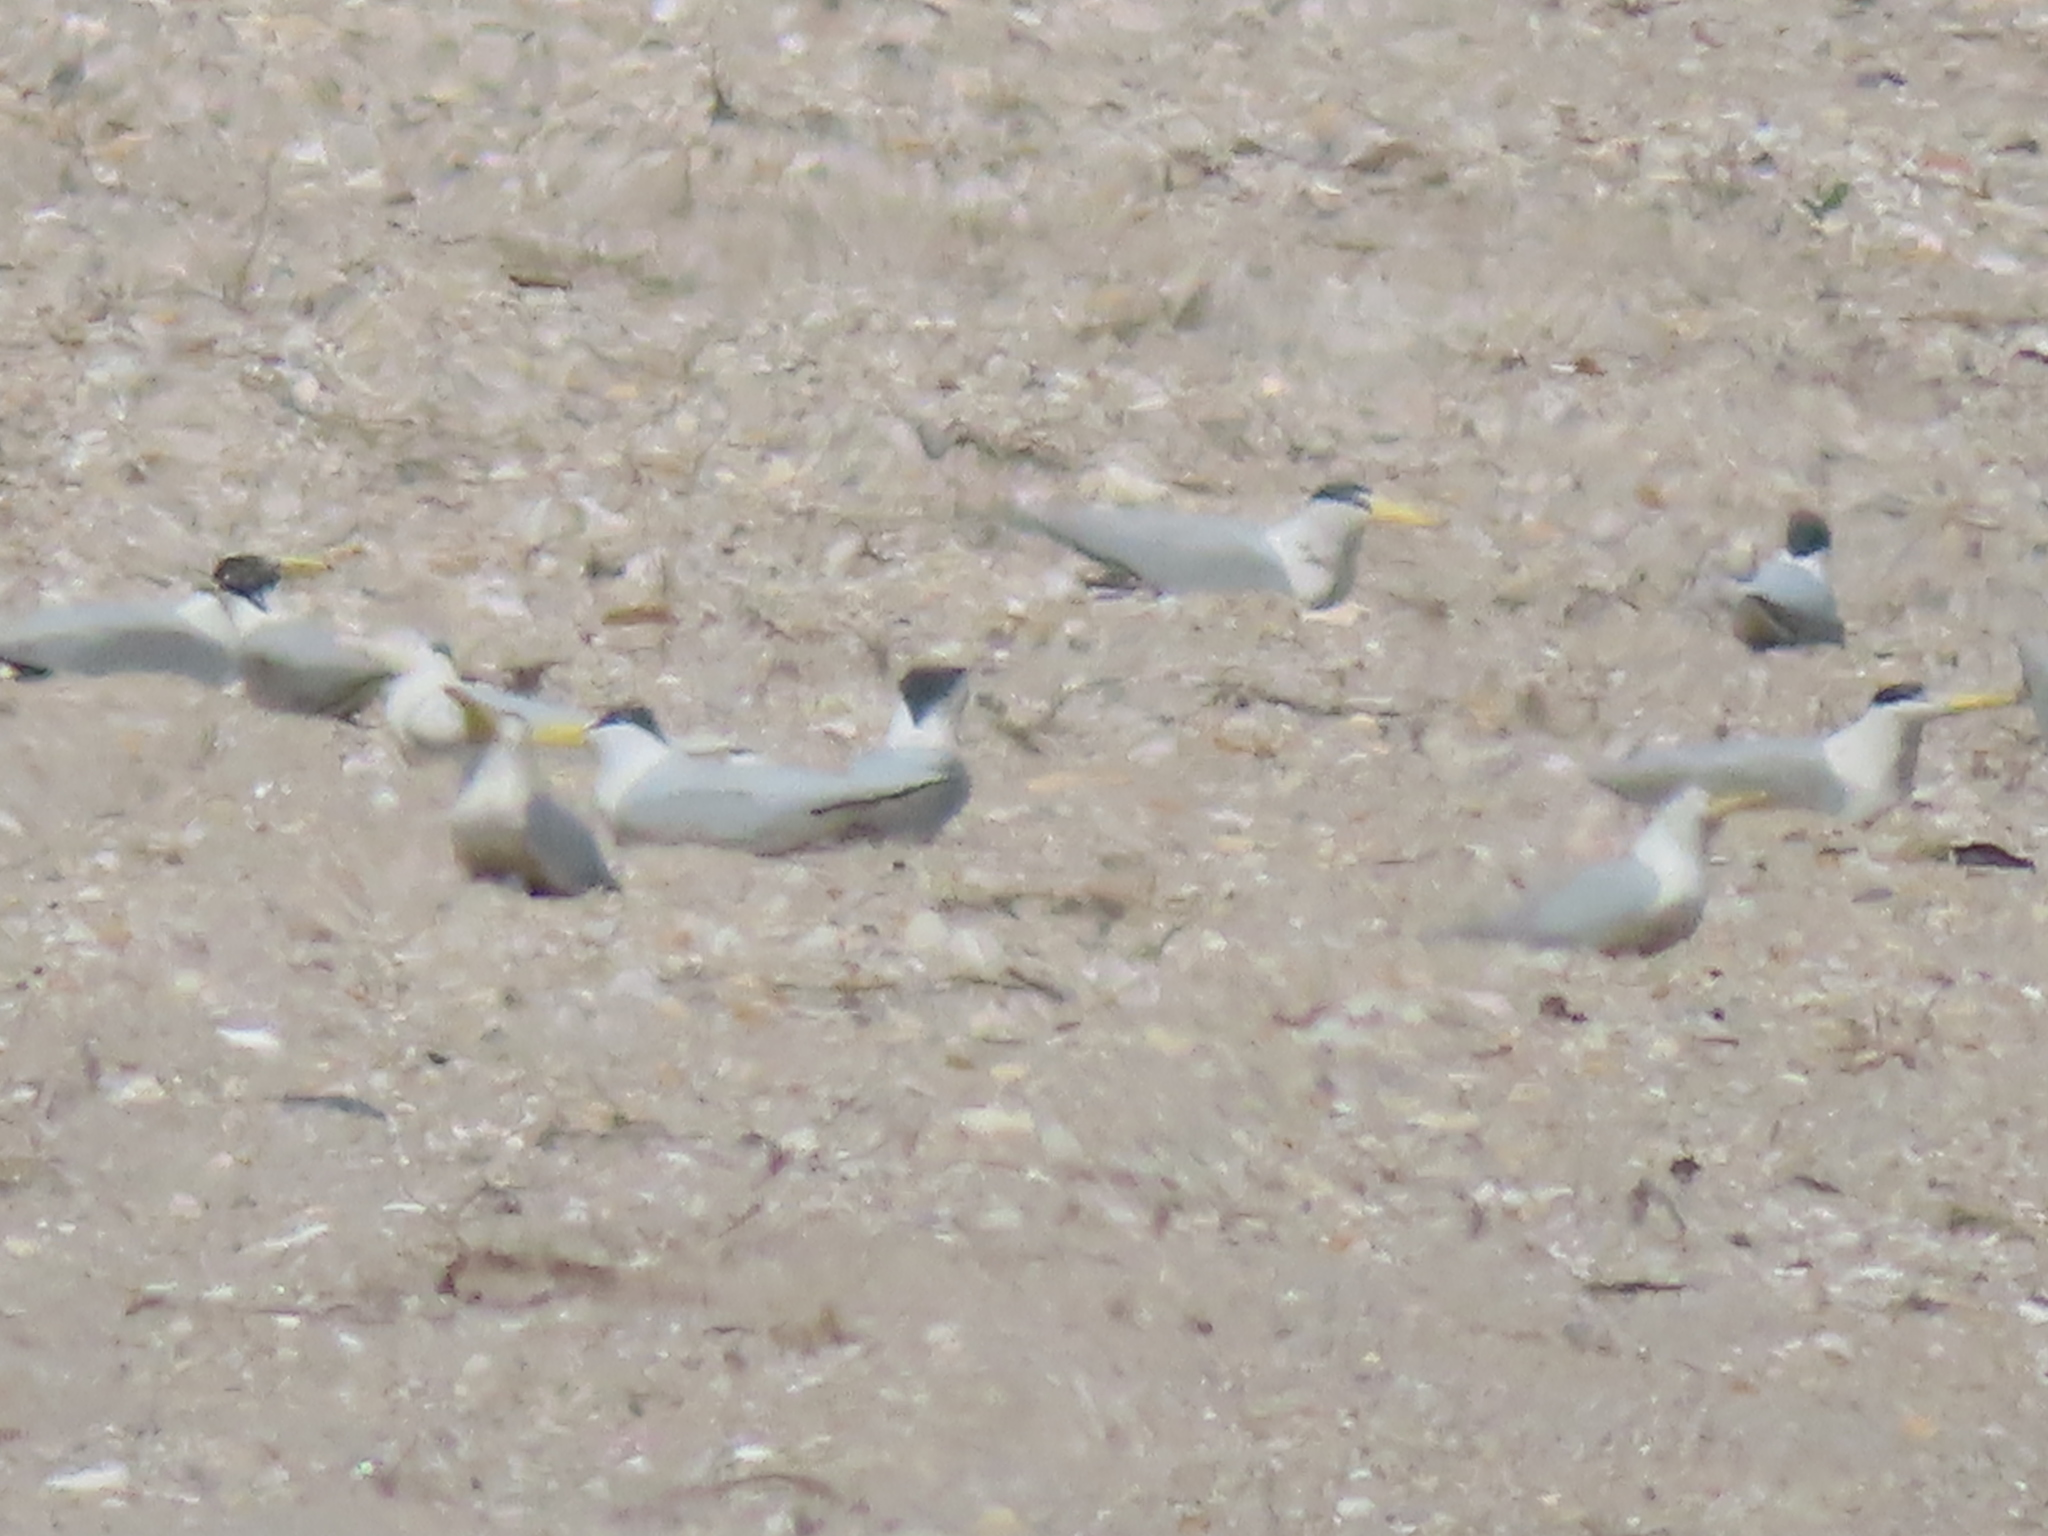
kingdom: Animalia
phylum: Chordata
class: Aves
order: Charadriiformes
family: Laridae
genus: Sternula
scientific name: Sternula antillarum
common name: Least tern
